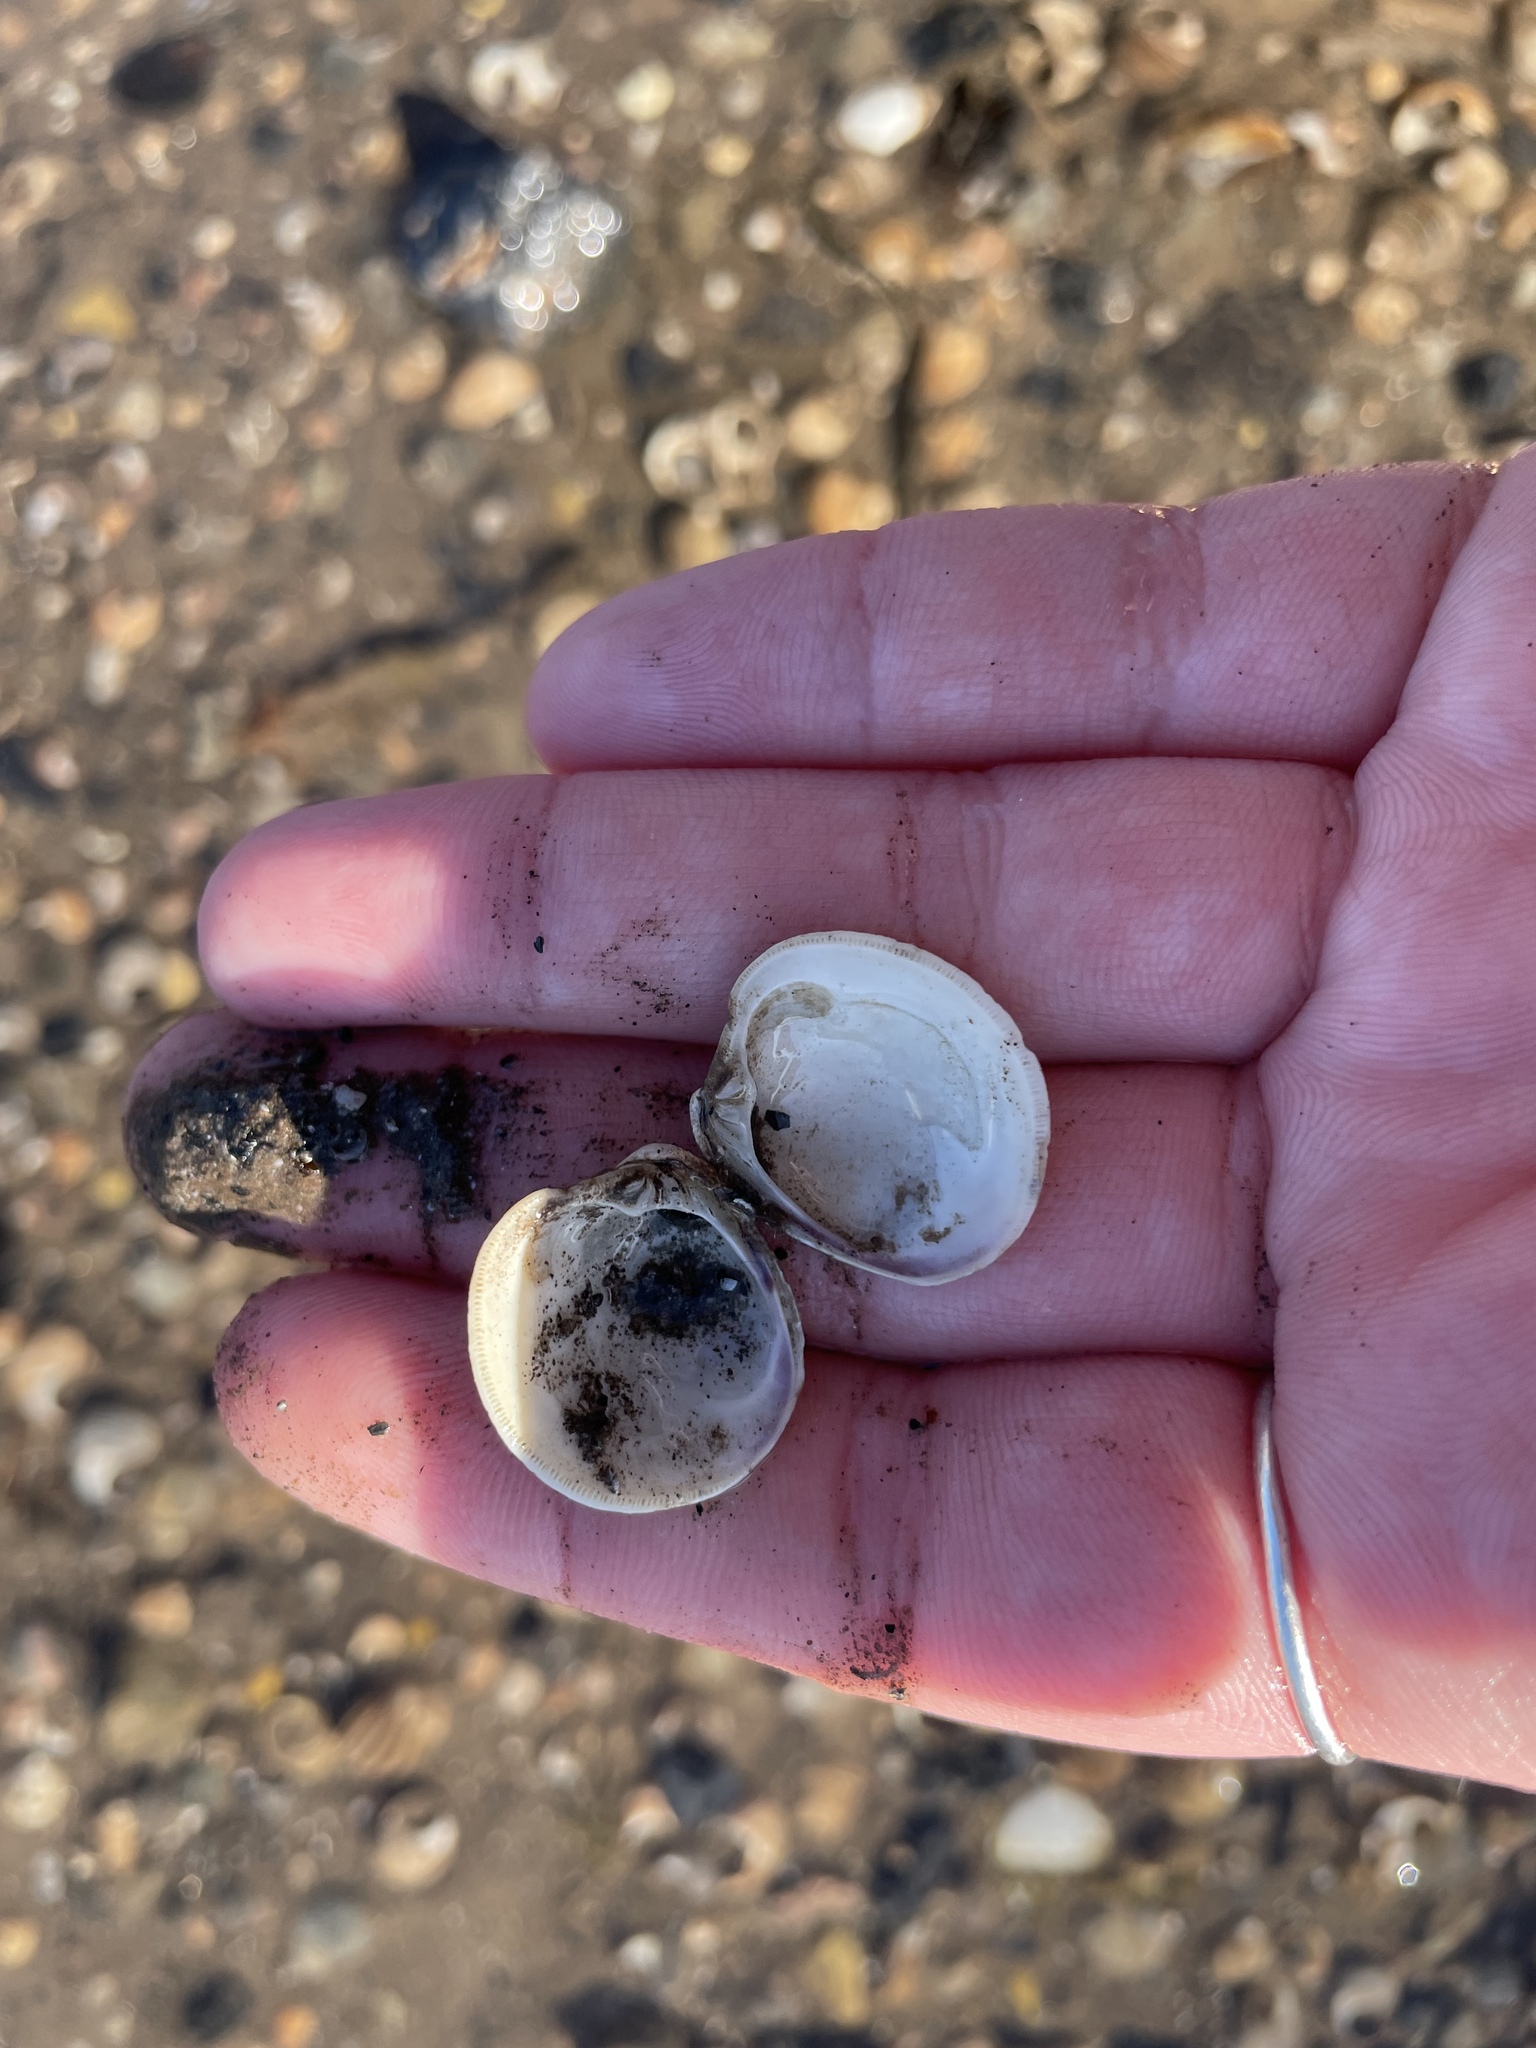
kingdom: Animalia
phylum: Mollusca
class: Bivalvia
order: Venerida
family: Veneridae
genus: Mercenaria
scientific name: Mercenaria mercenaria
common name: American hard-shelled clam
